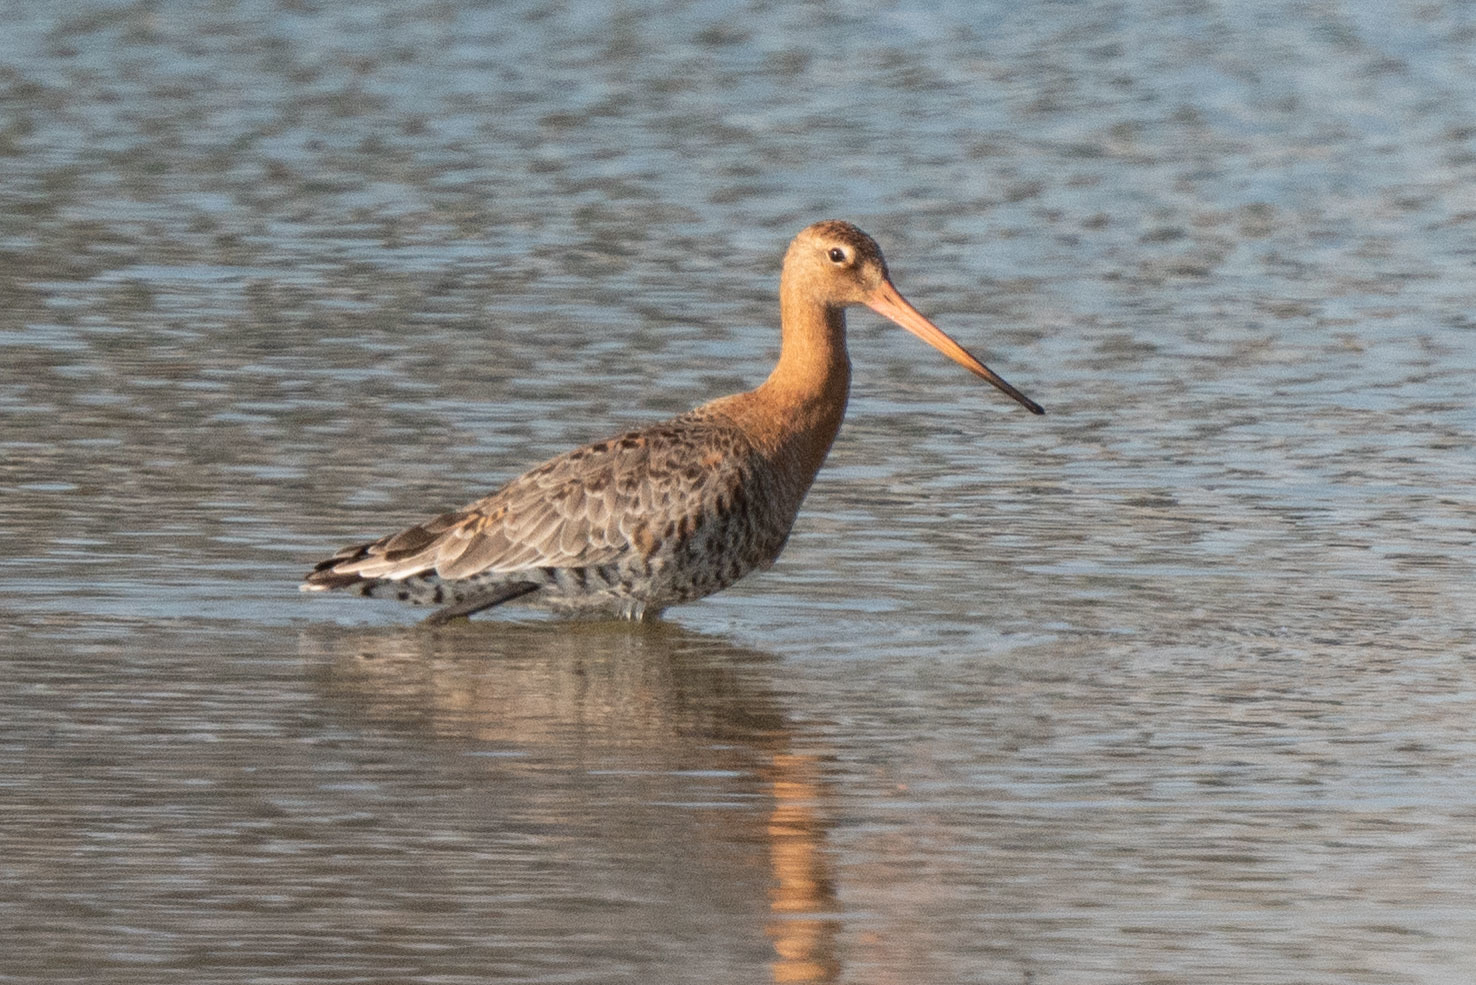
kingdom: Animalia
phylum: Chordata
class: Aves
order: Charadriiformes
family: Scolopacidae
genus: Limosa
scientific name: Limosa limosa
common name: Black-tailed godwit
